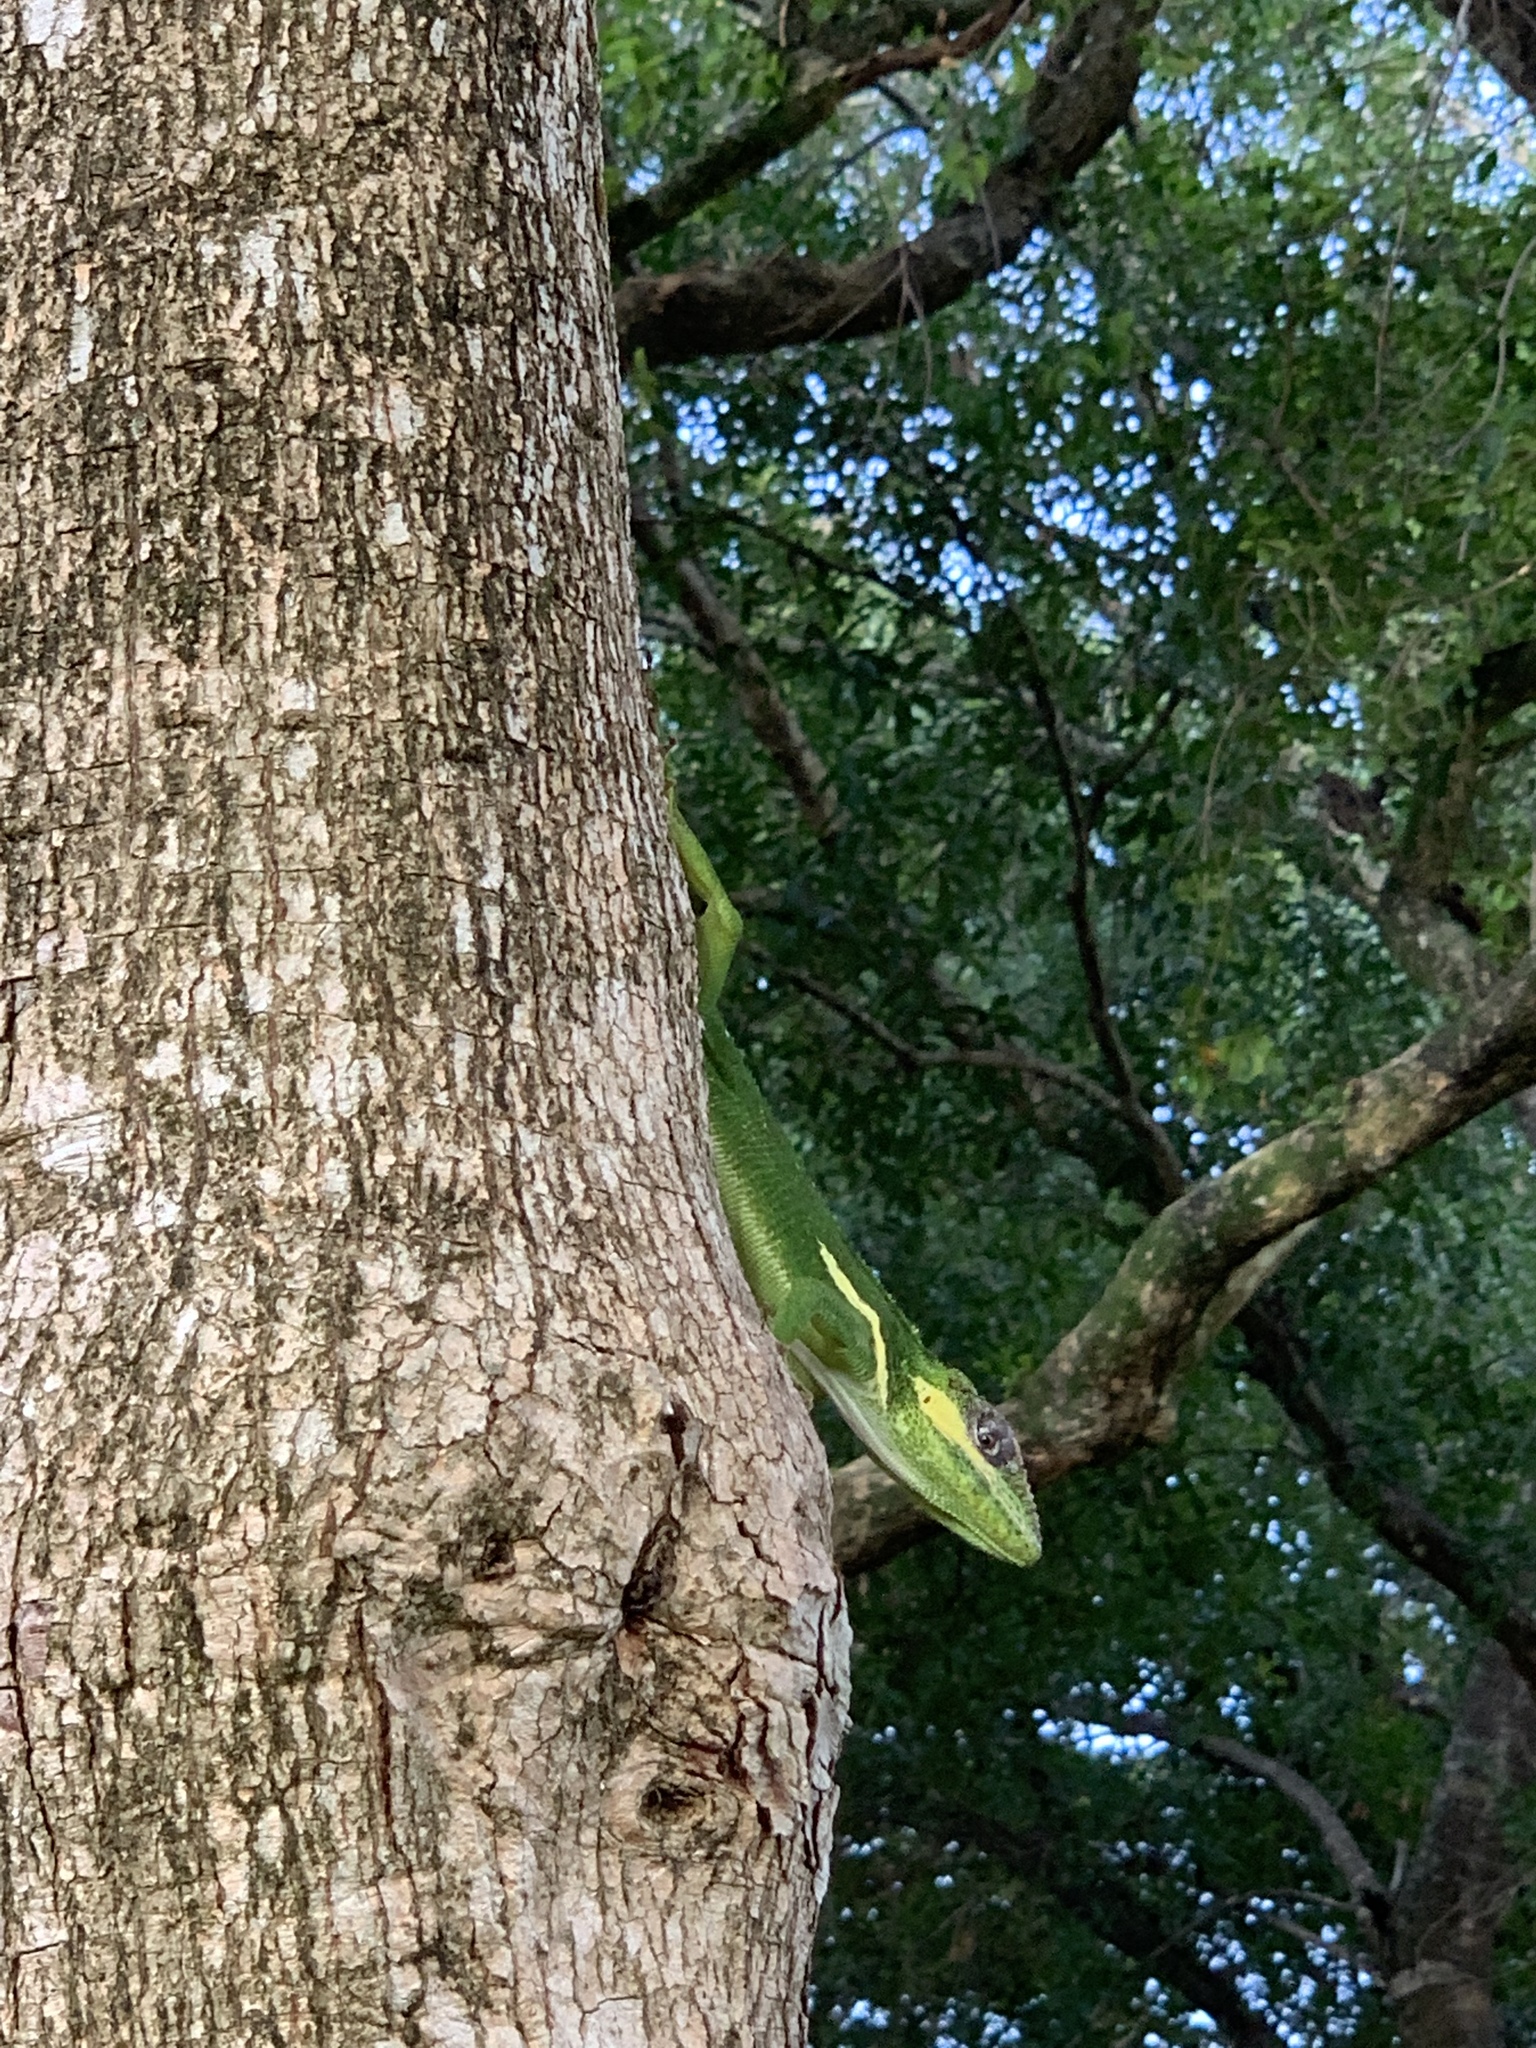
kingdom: Animalia
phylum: Chordata
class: Squamata
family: Dactyloidae
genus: Anolis
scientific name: Anolis equestris
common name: Knight anole
